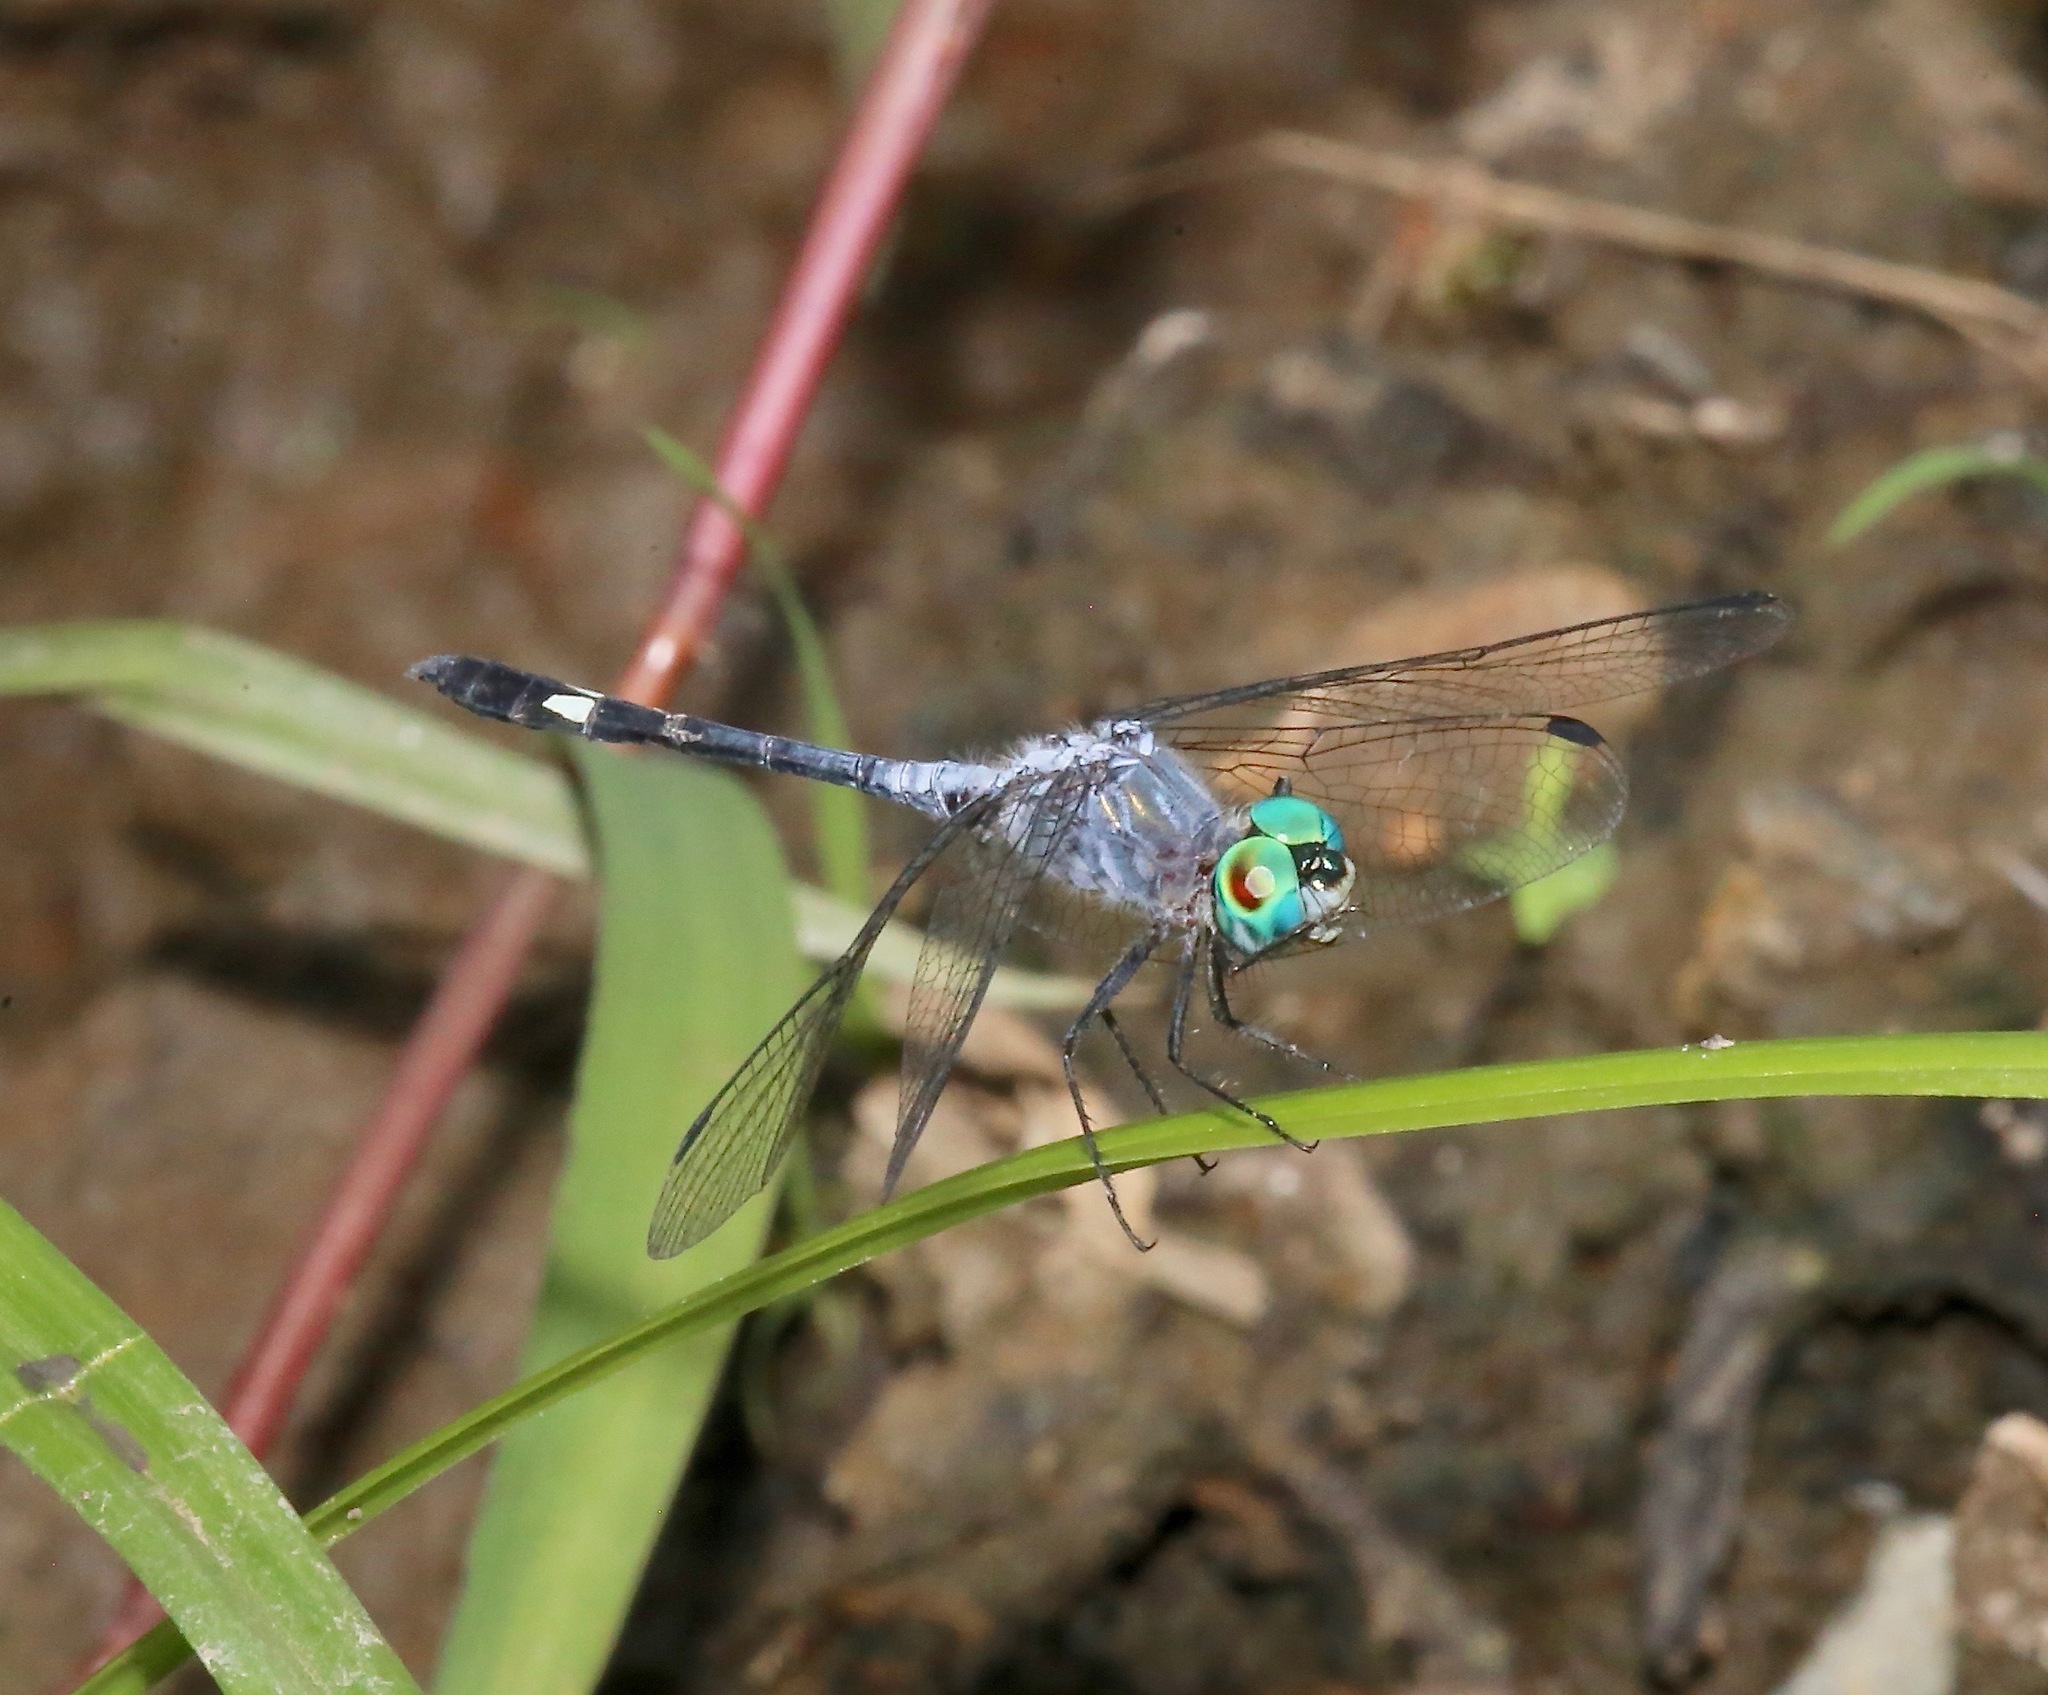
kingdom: Animalia
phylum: Arthropoda
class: Insecta
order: Odonata
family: Libellulidae
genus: Micrathyria
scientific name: Micrathyria aequalis
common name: Spot-tailed dasher
